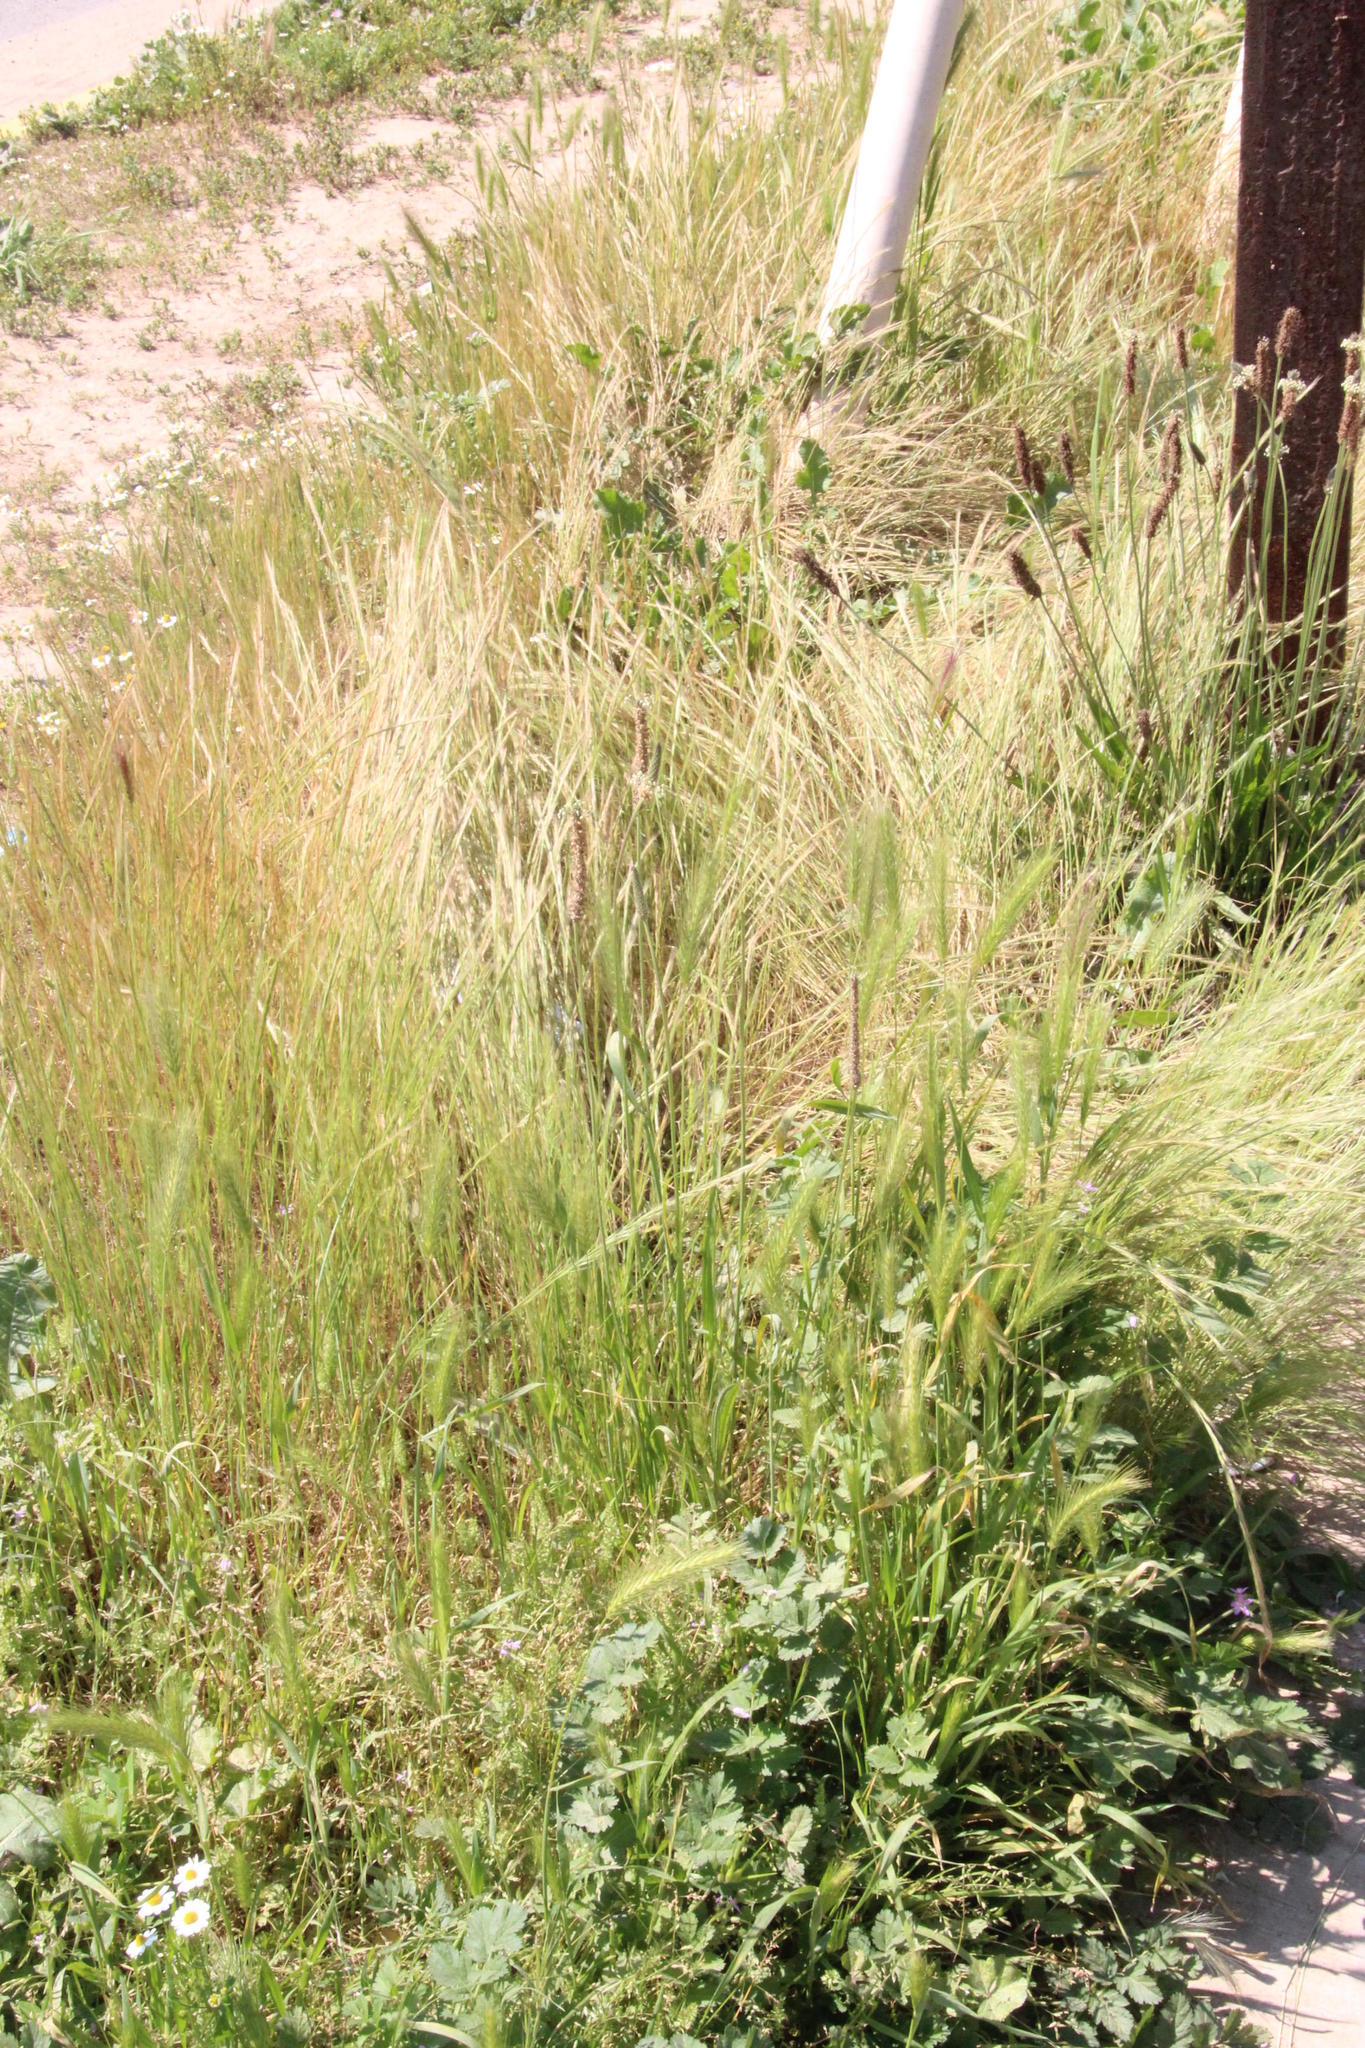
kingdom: Plantae
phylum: Tracheophyta
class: Magnoliopsida
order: Lamiales
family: Plantaginaceae
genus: Plantago
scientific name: Plantago lanceolata
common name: Ribwort plantain
